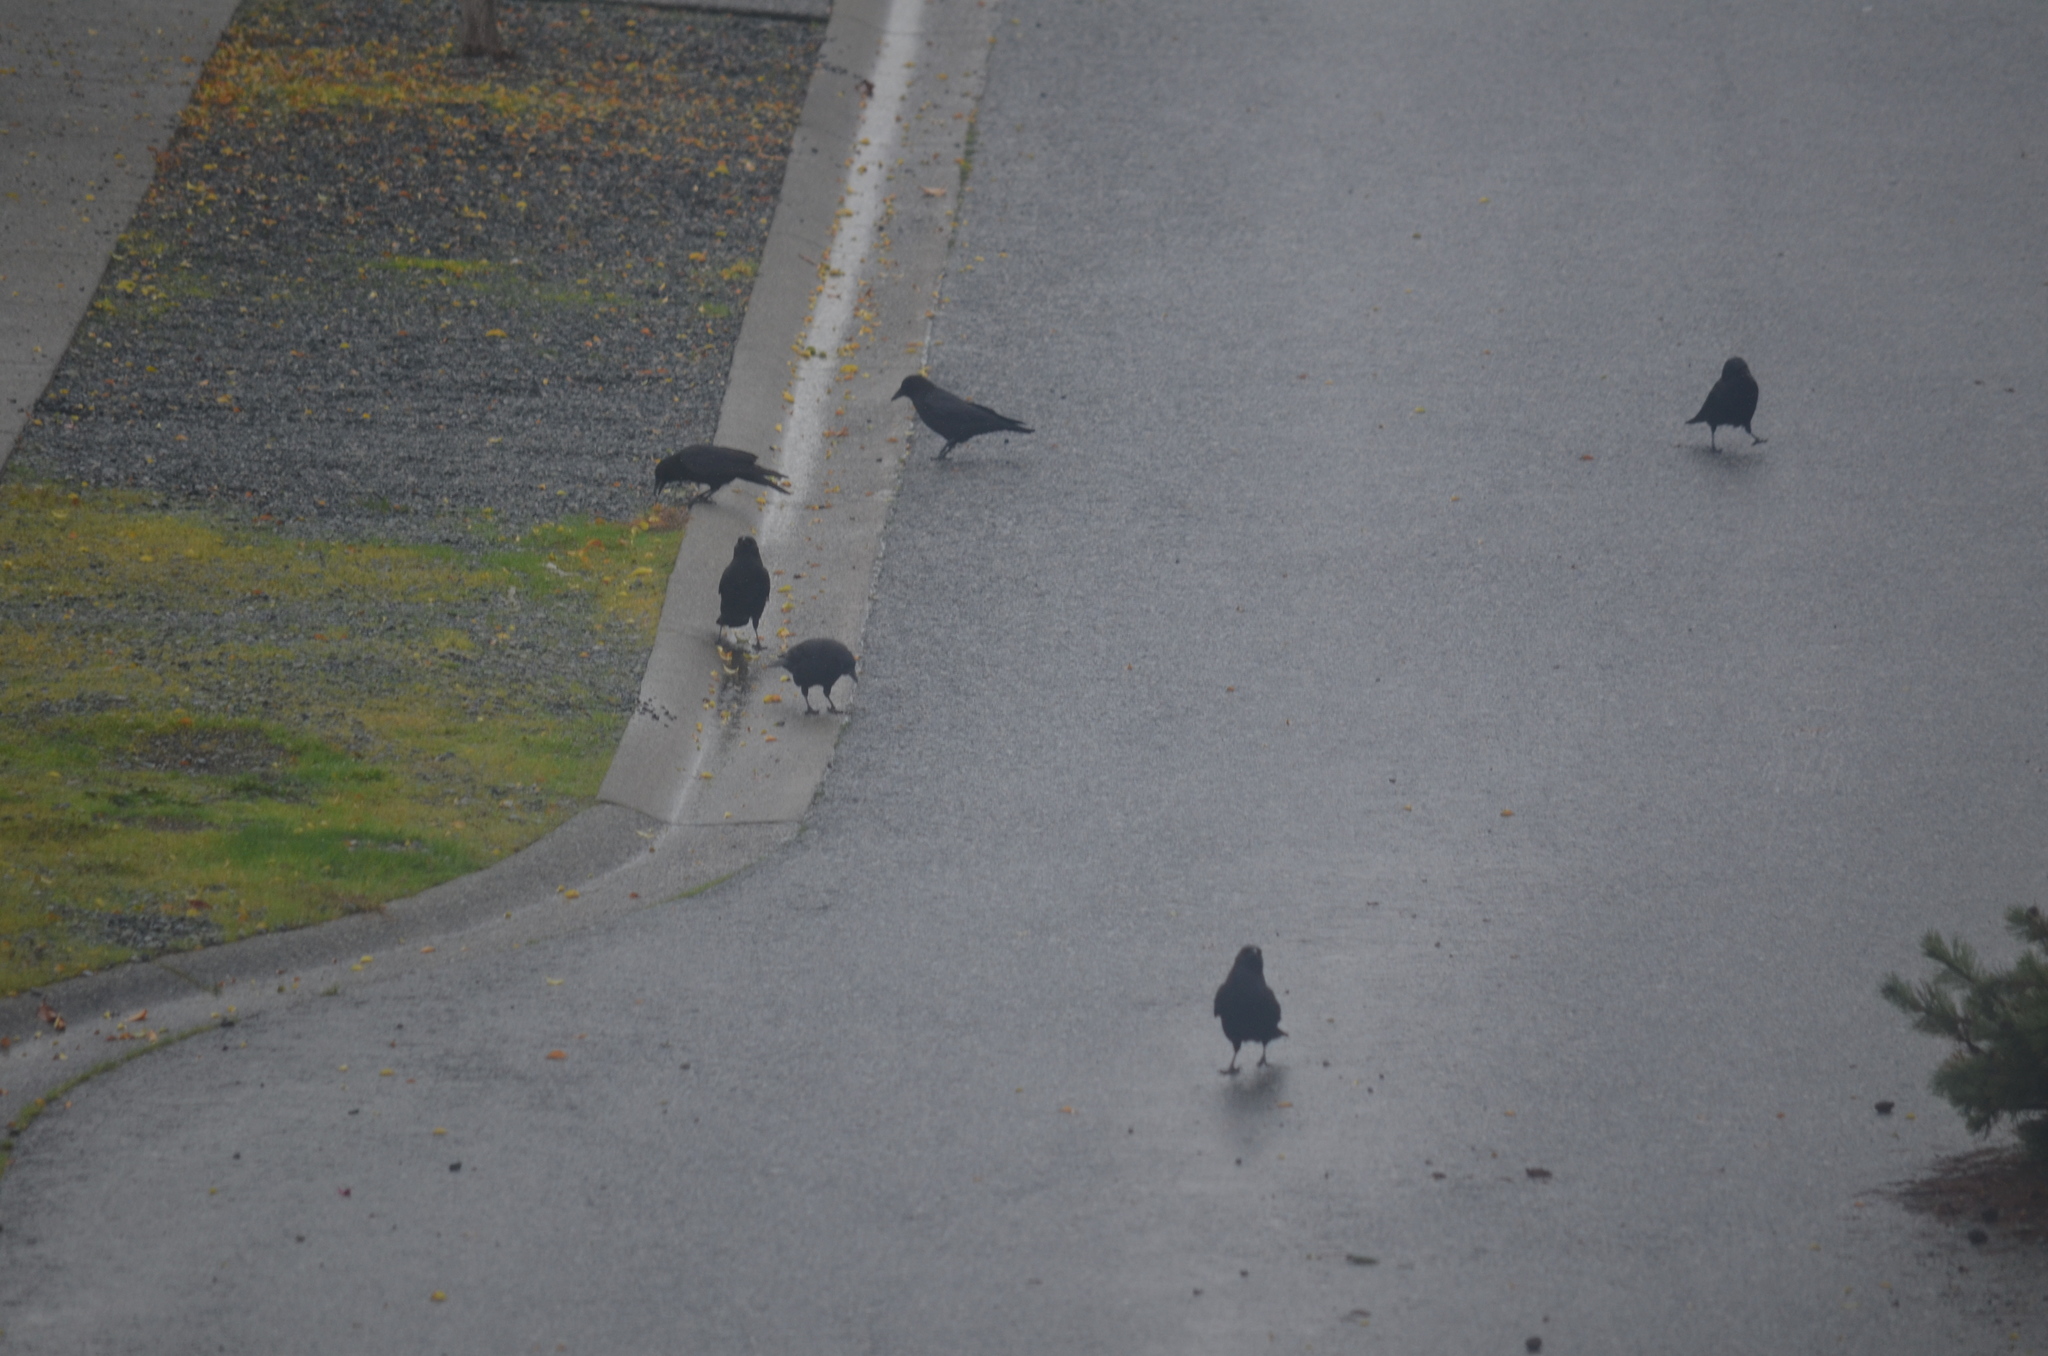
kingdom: Animalia
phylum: Chordata
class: Aves
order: Passeriformes
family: Corvidae
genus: Corvus
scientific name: Corvus brachyrhynchos
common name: American crow
